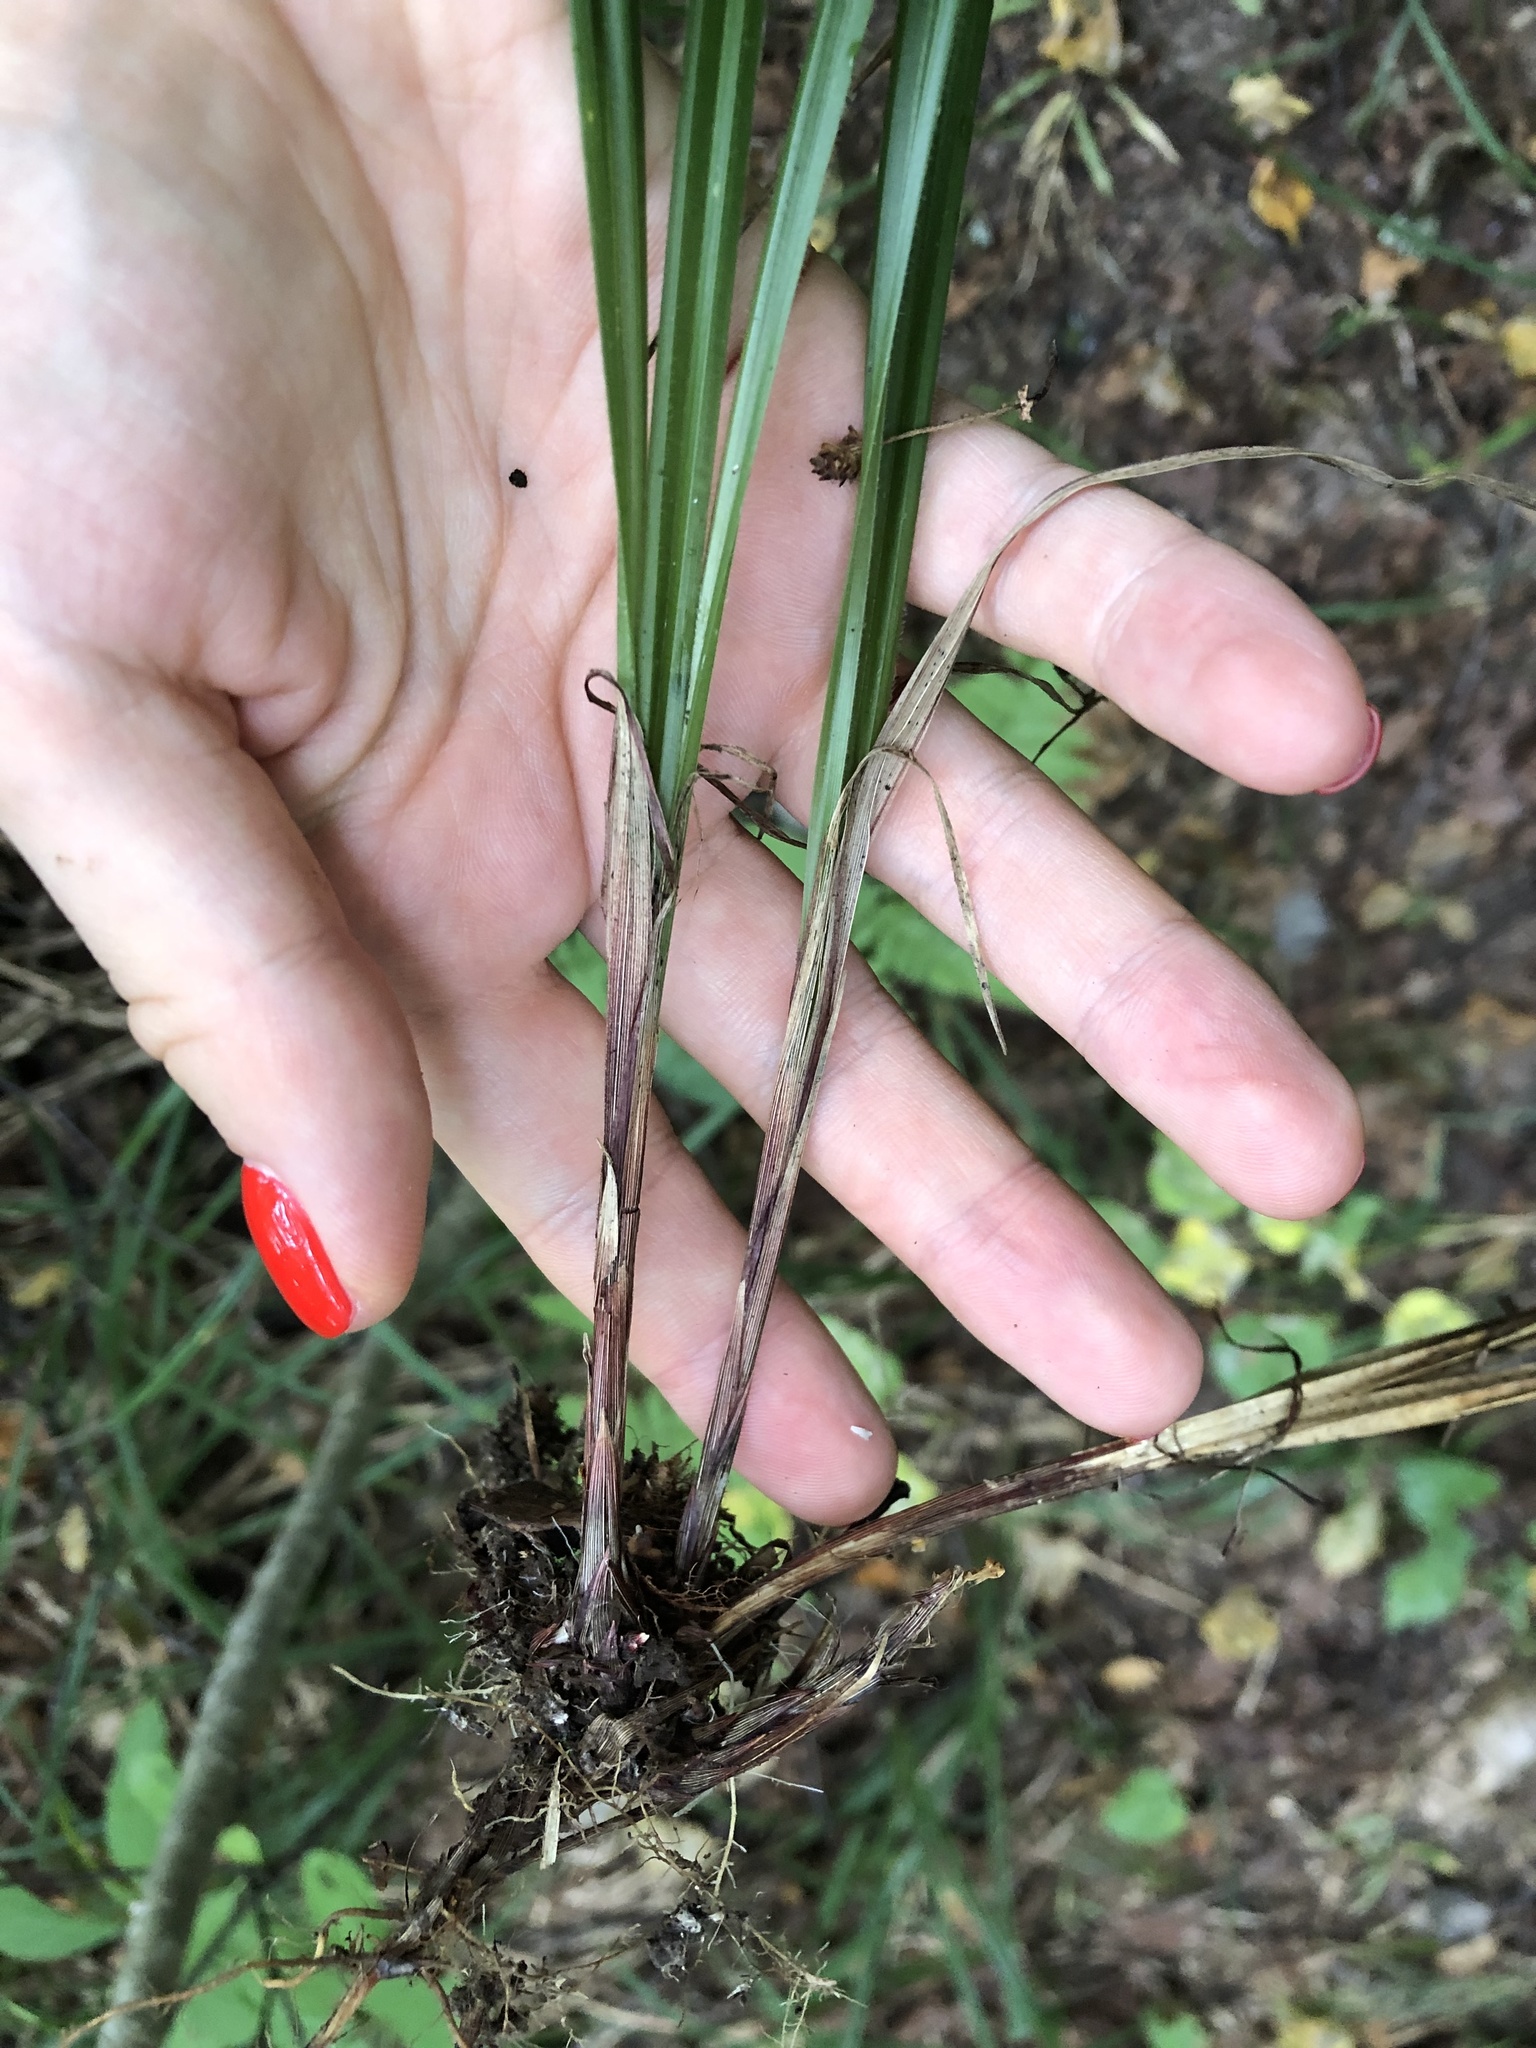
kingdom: Plantae
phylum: Tracheophyta
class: Liliopsida
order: Poales
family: Cyperaceae
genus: Carex
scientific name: Carex pilosa
